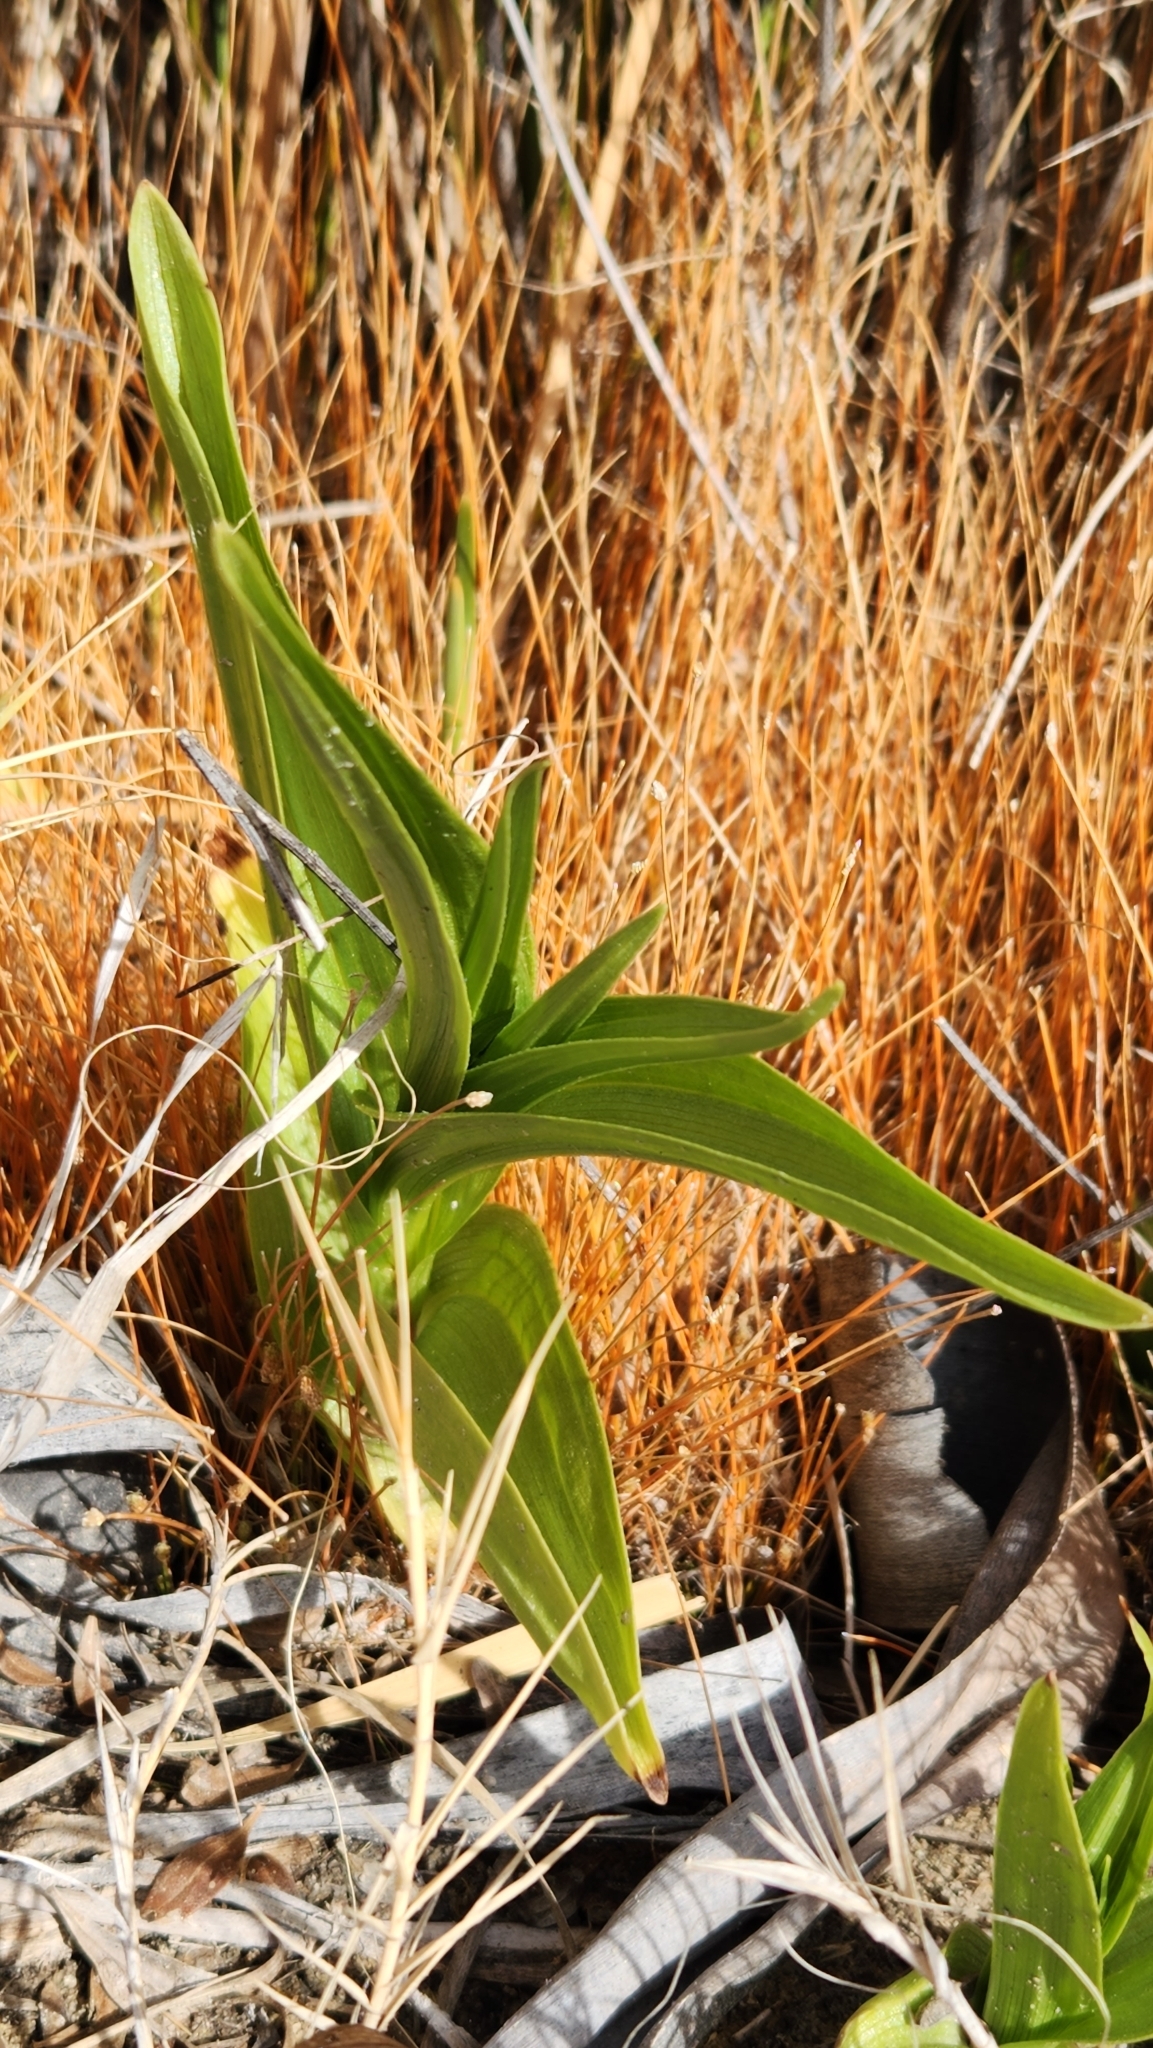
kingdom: Plantae
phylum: Tracheophyta
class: Liliopsida
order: Asparagales
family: Orchidaceae
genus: Epipactis
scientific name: Epipactis gigantea
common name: Chatterbox
